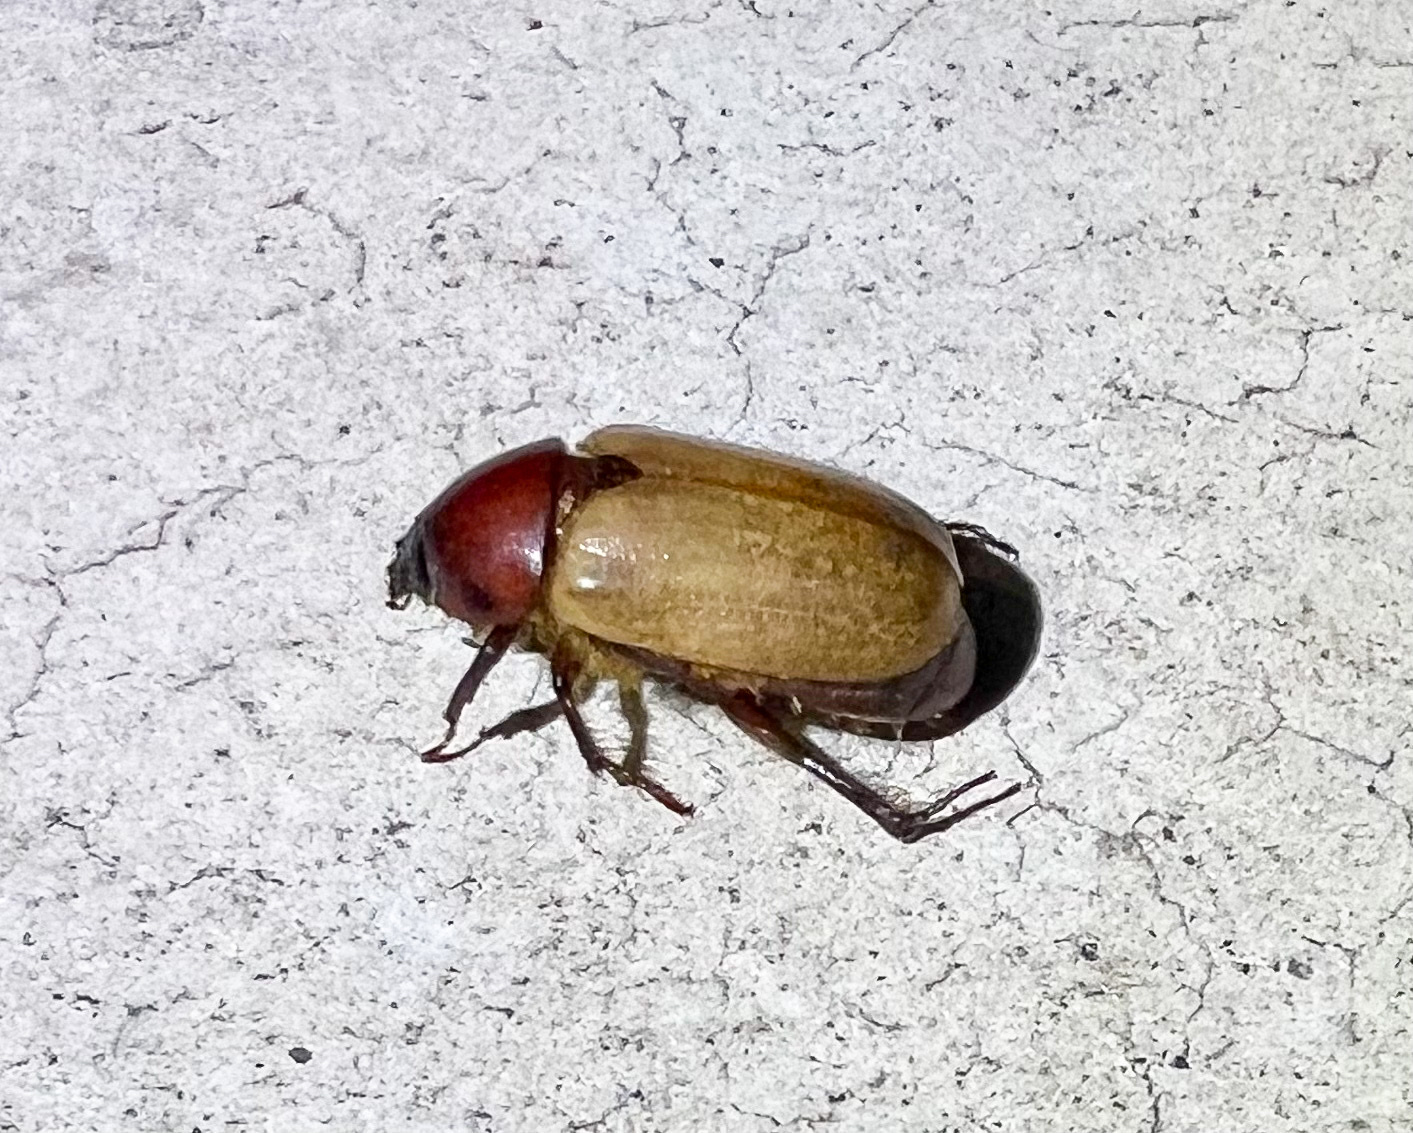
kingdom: Animalia
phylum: Arthropoda
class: Insecta
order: Coleoptera
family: Scarabaeidae
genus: Cyclocephala
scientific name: Cyclocephala melanocephala
